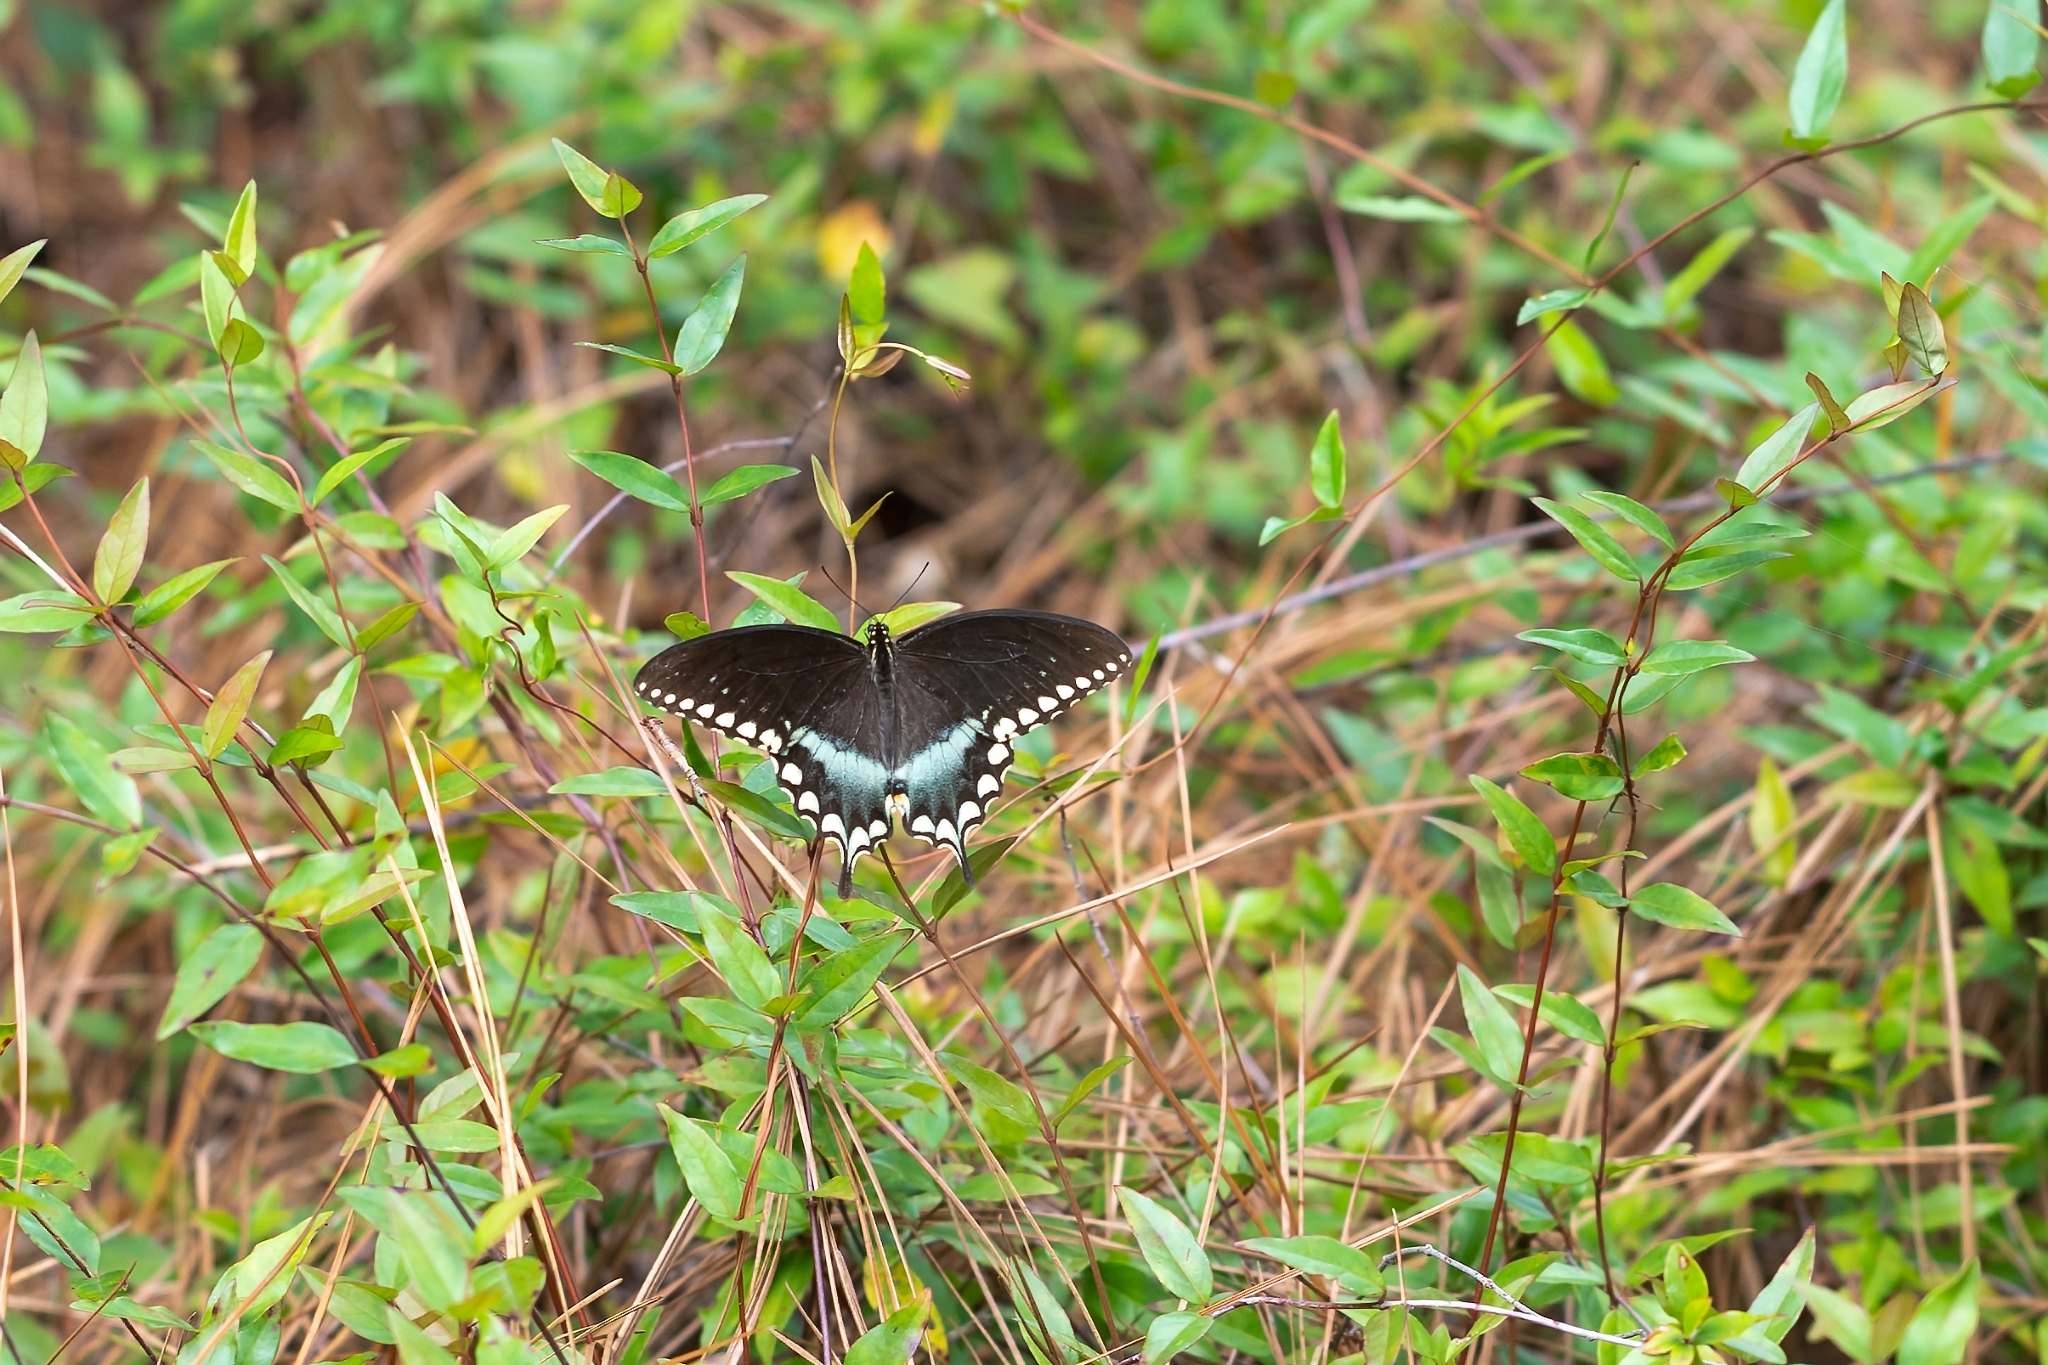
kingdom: Animalia
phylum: Arthropoda
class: Insecta
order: Lepidoptera
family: Papilionidae
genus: Papilio
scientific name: Papilio troilus
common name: Spicebush swallowtail
